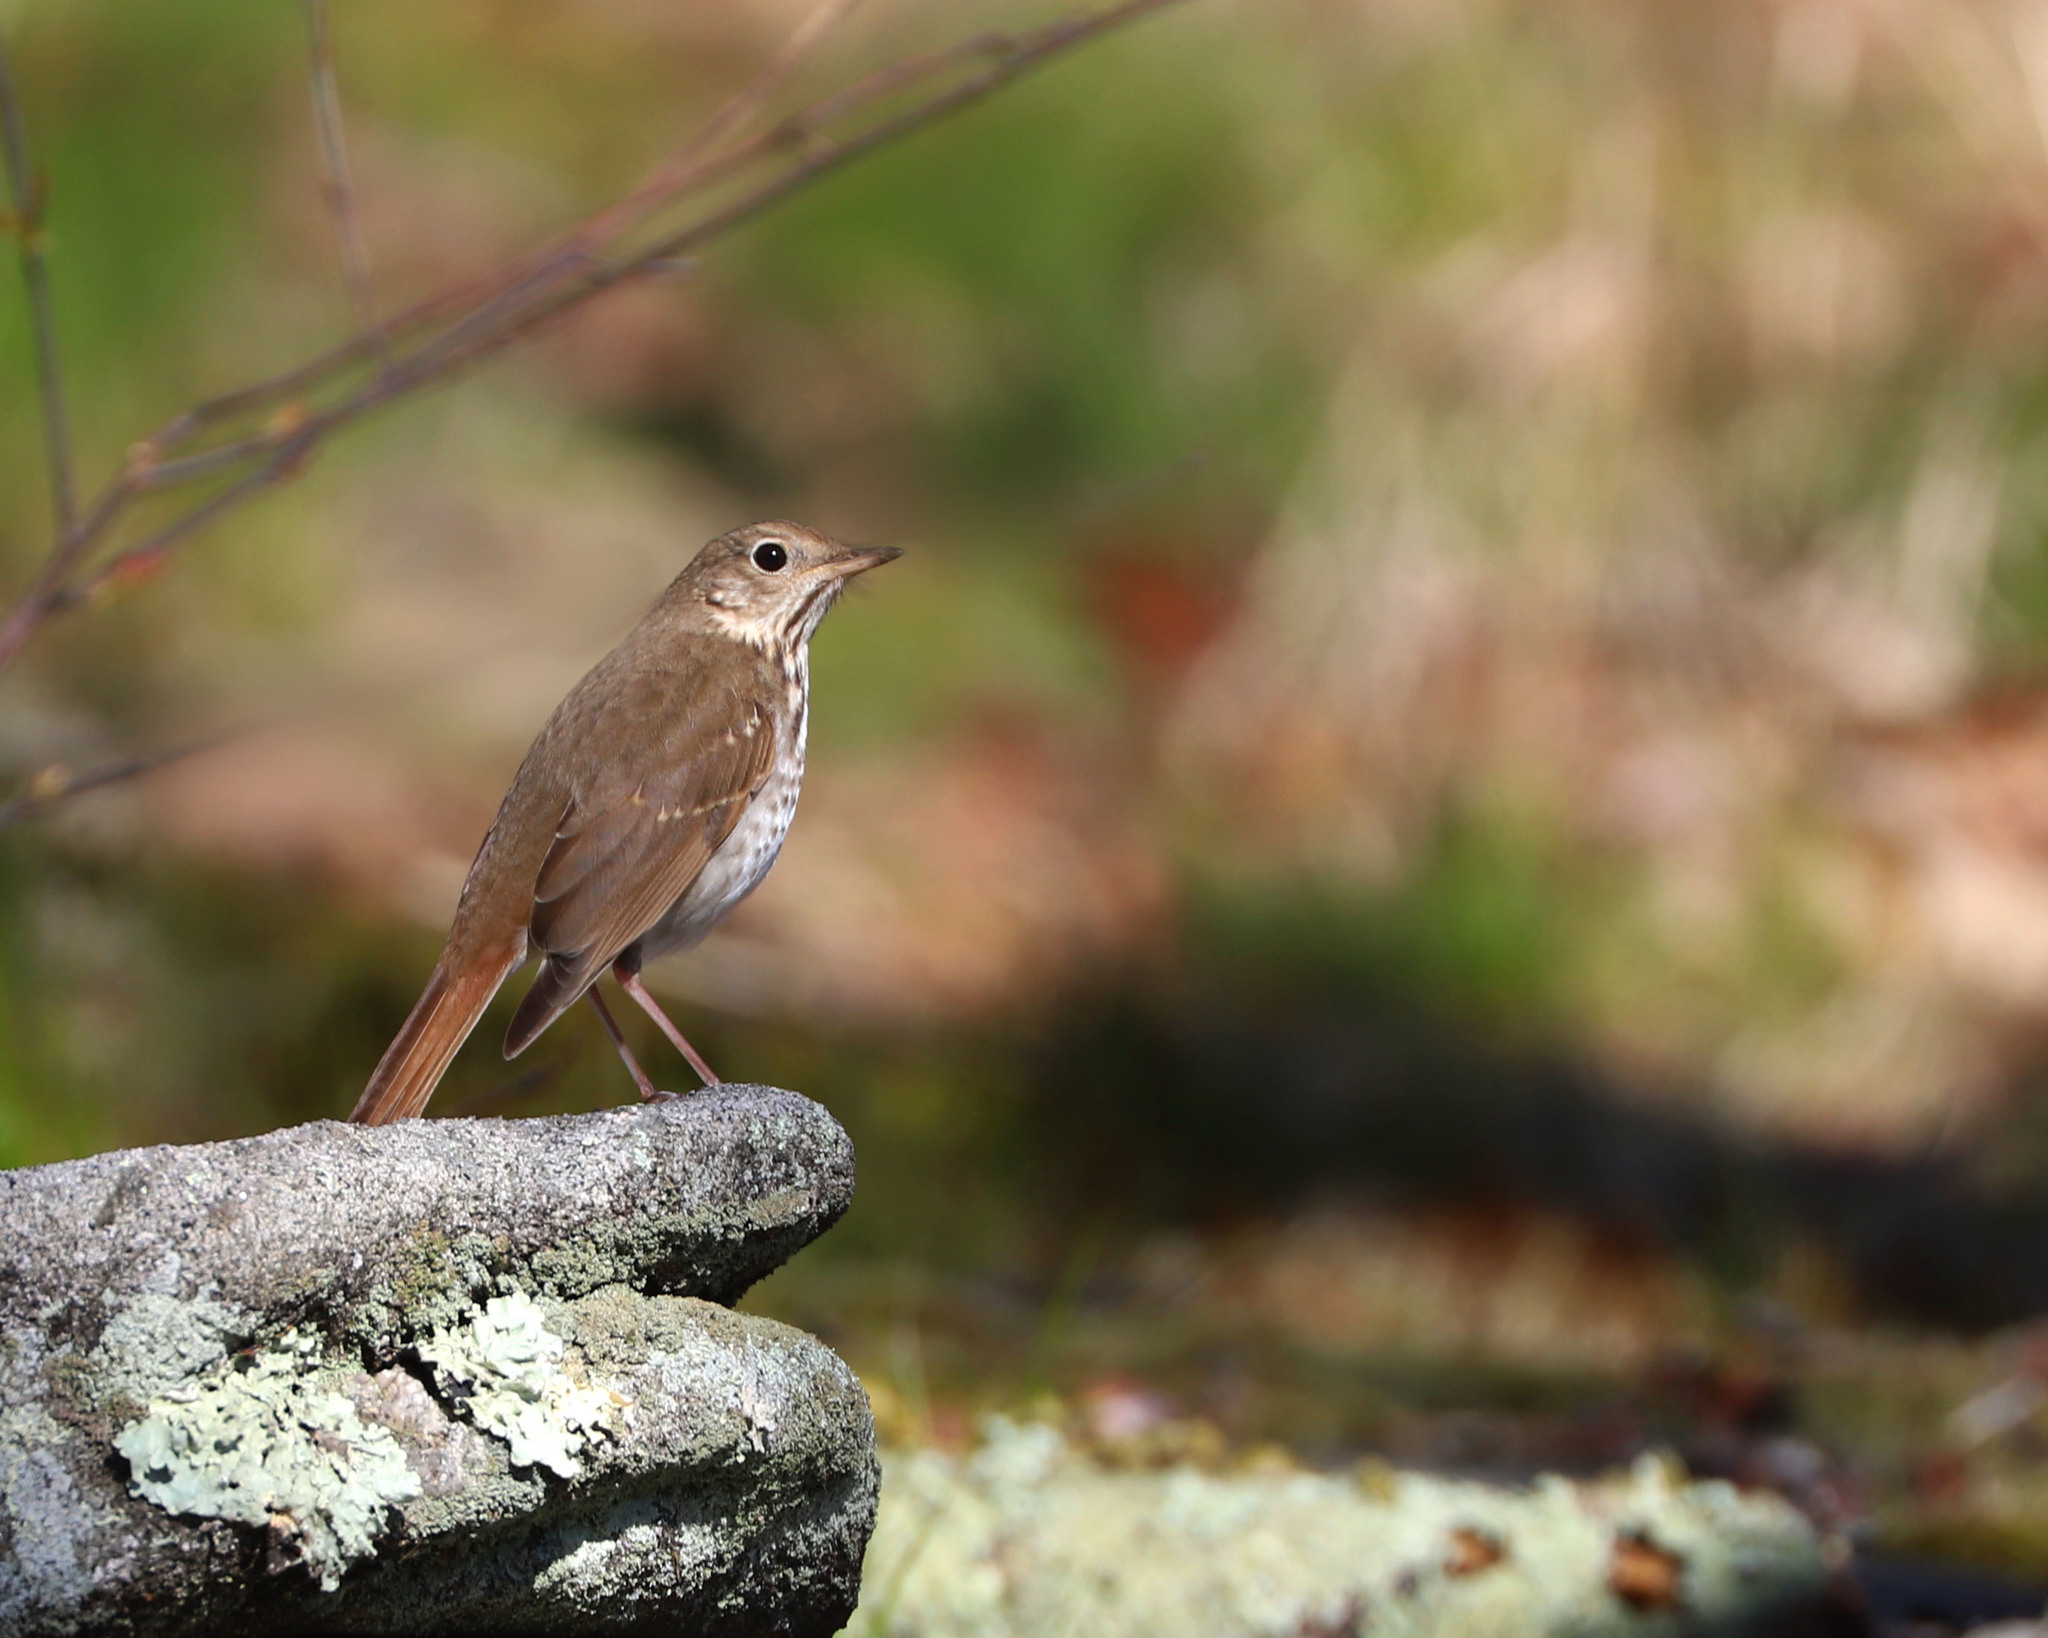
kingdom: Animalia
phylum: Chordata
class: Aves
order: Passeriformes
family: Turdidae
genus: Catharus
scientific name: Catharus guttatus
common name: Hermit thrush
